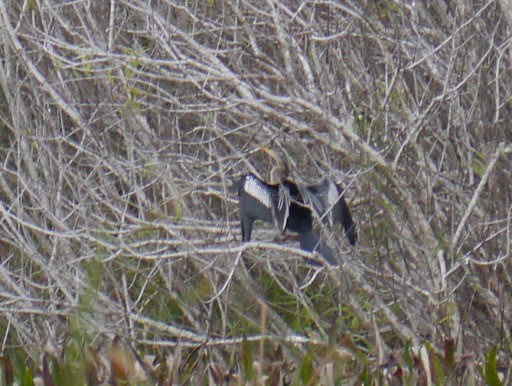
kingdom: Animalia
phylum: Chordata
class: Aves
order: Suliformes
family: Anhingidae
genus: Anhinga
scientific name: Anhinga anhinga
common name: Anhinga
